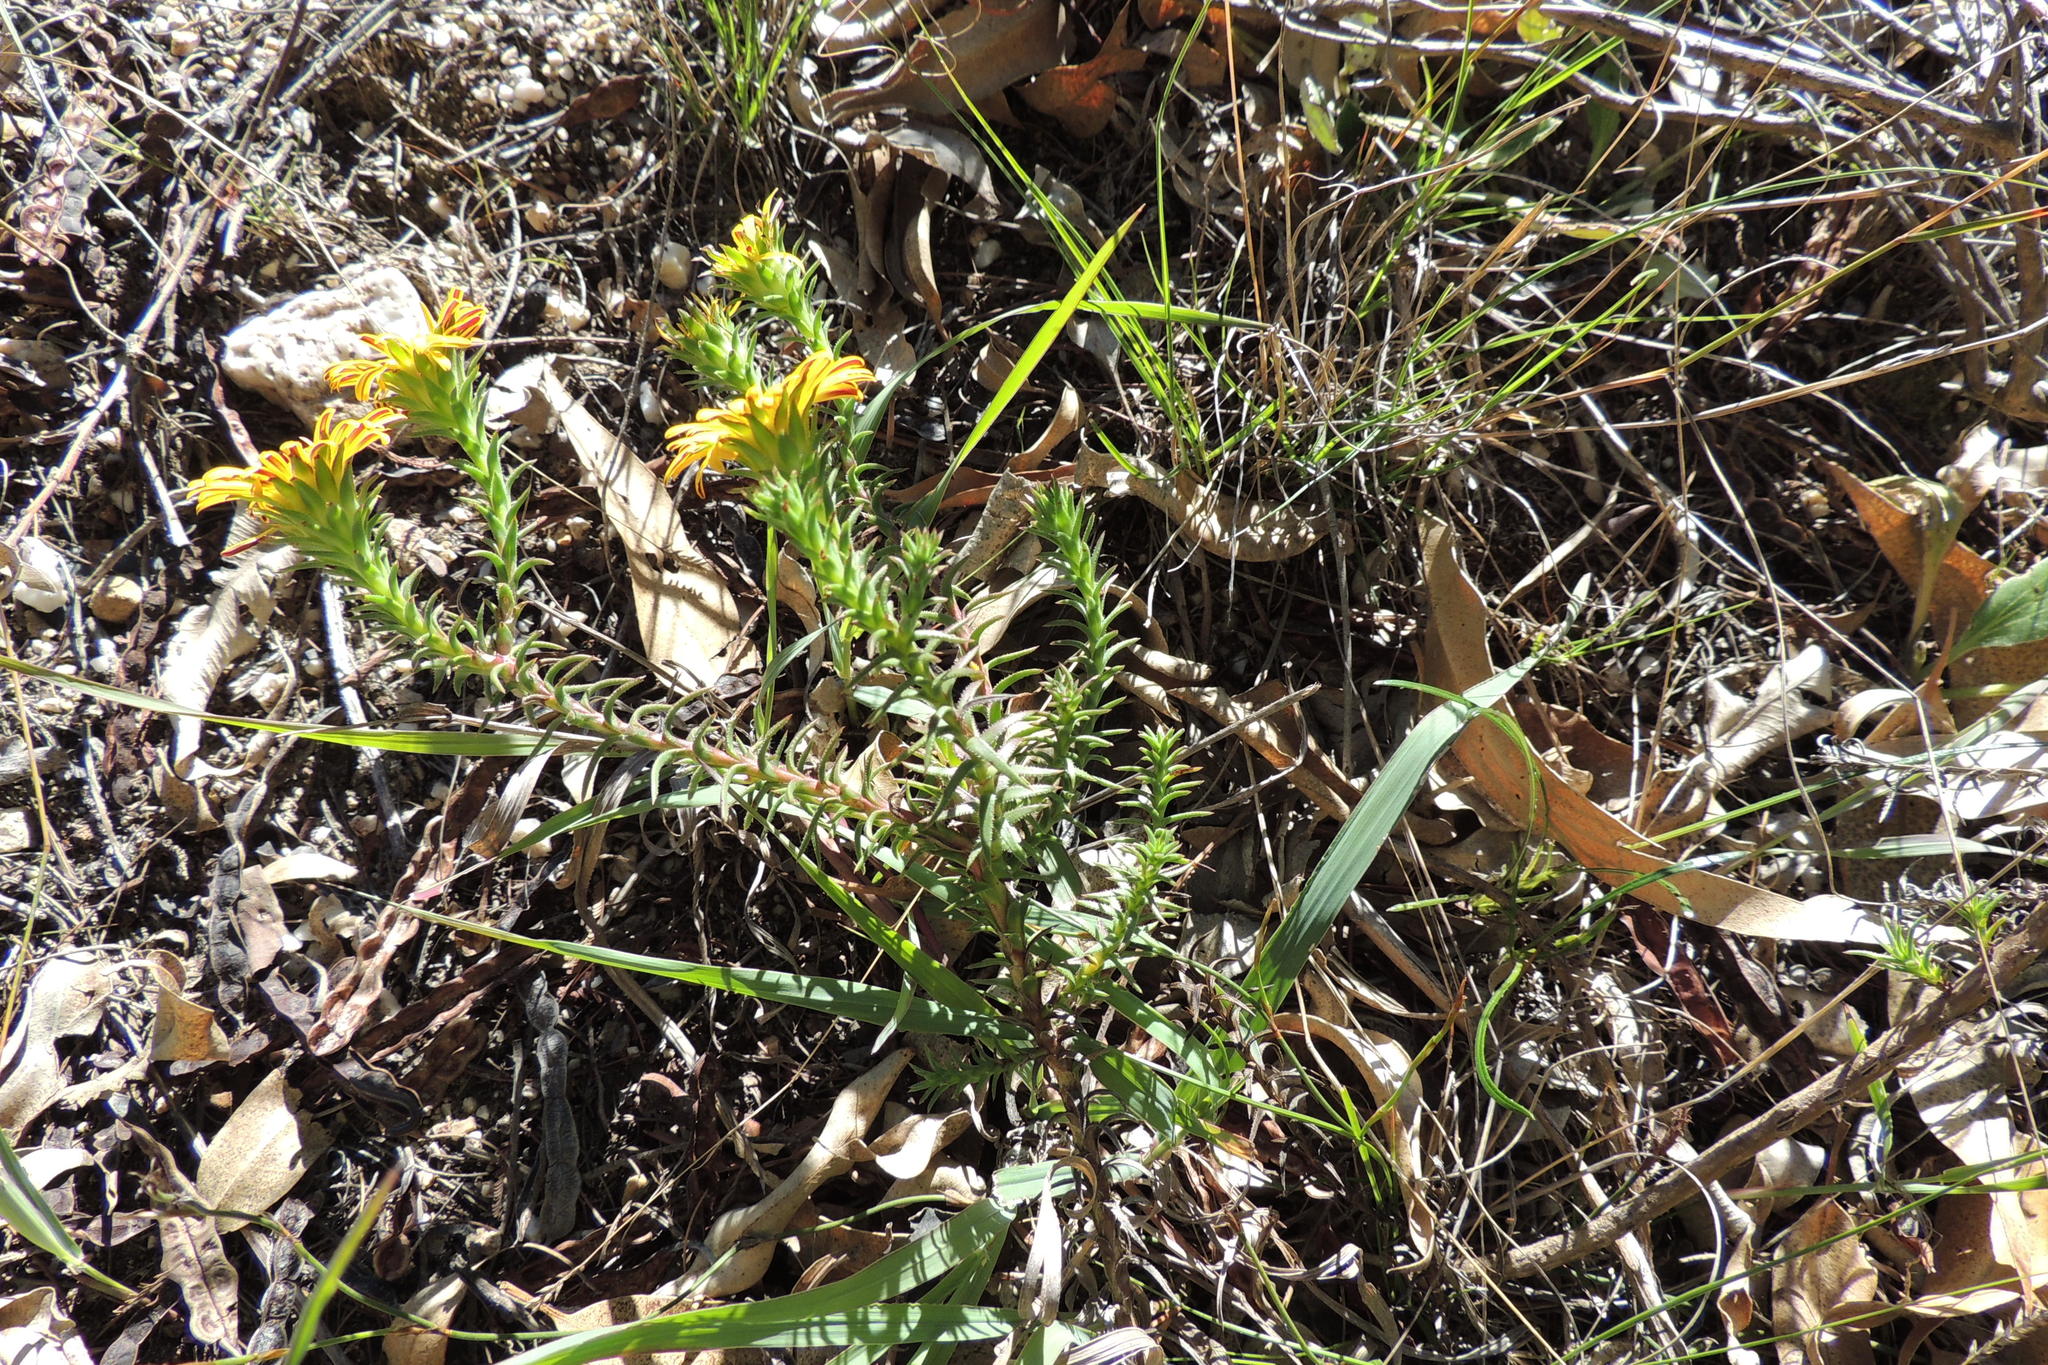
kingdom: Plantae
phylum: Tracheophyta
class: Magnoliopsida
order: Asterales
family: Asteraceae
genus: Oedera
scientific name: Oedera capensis
